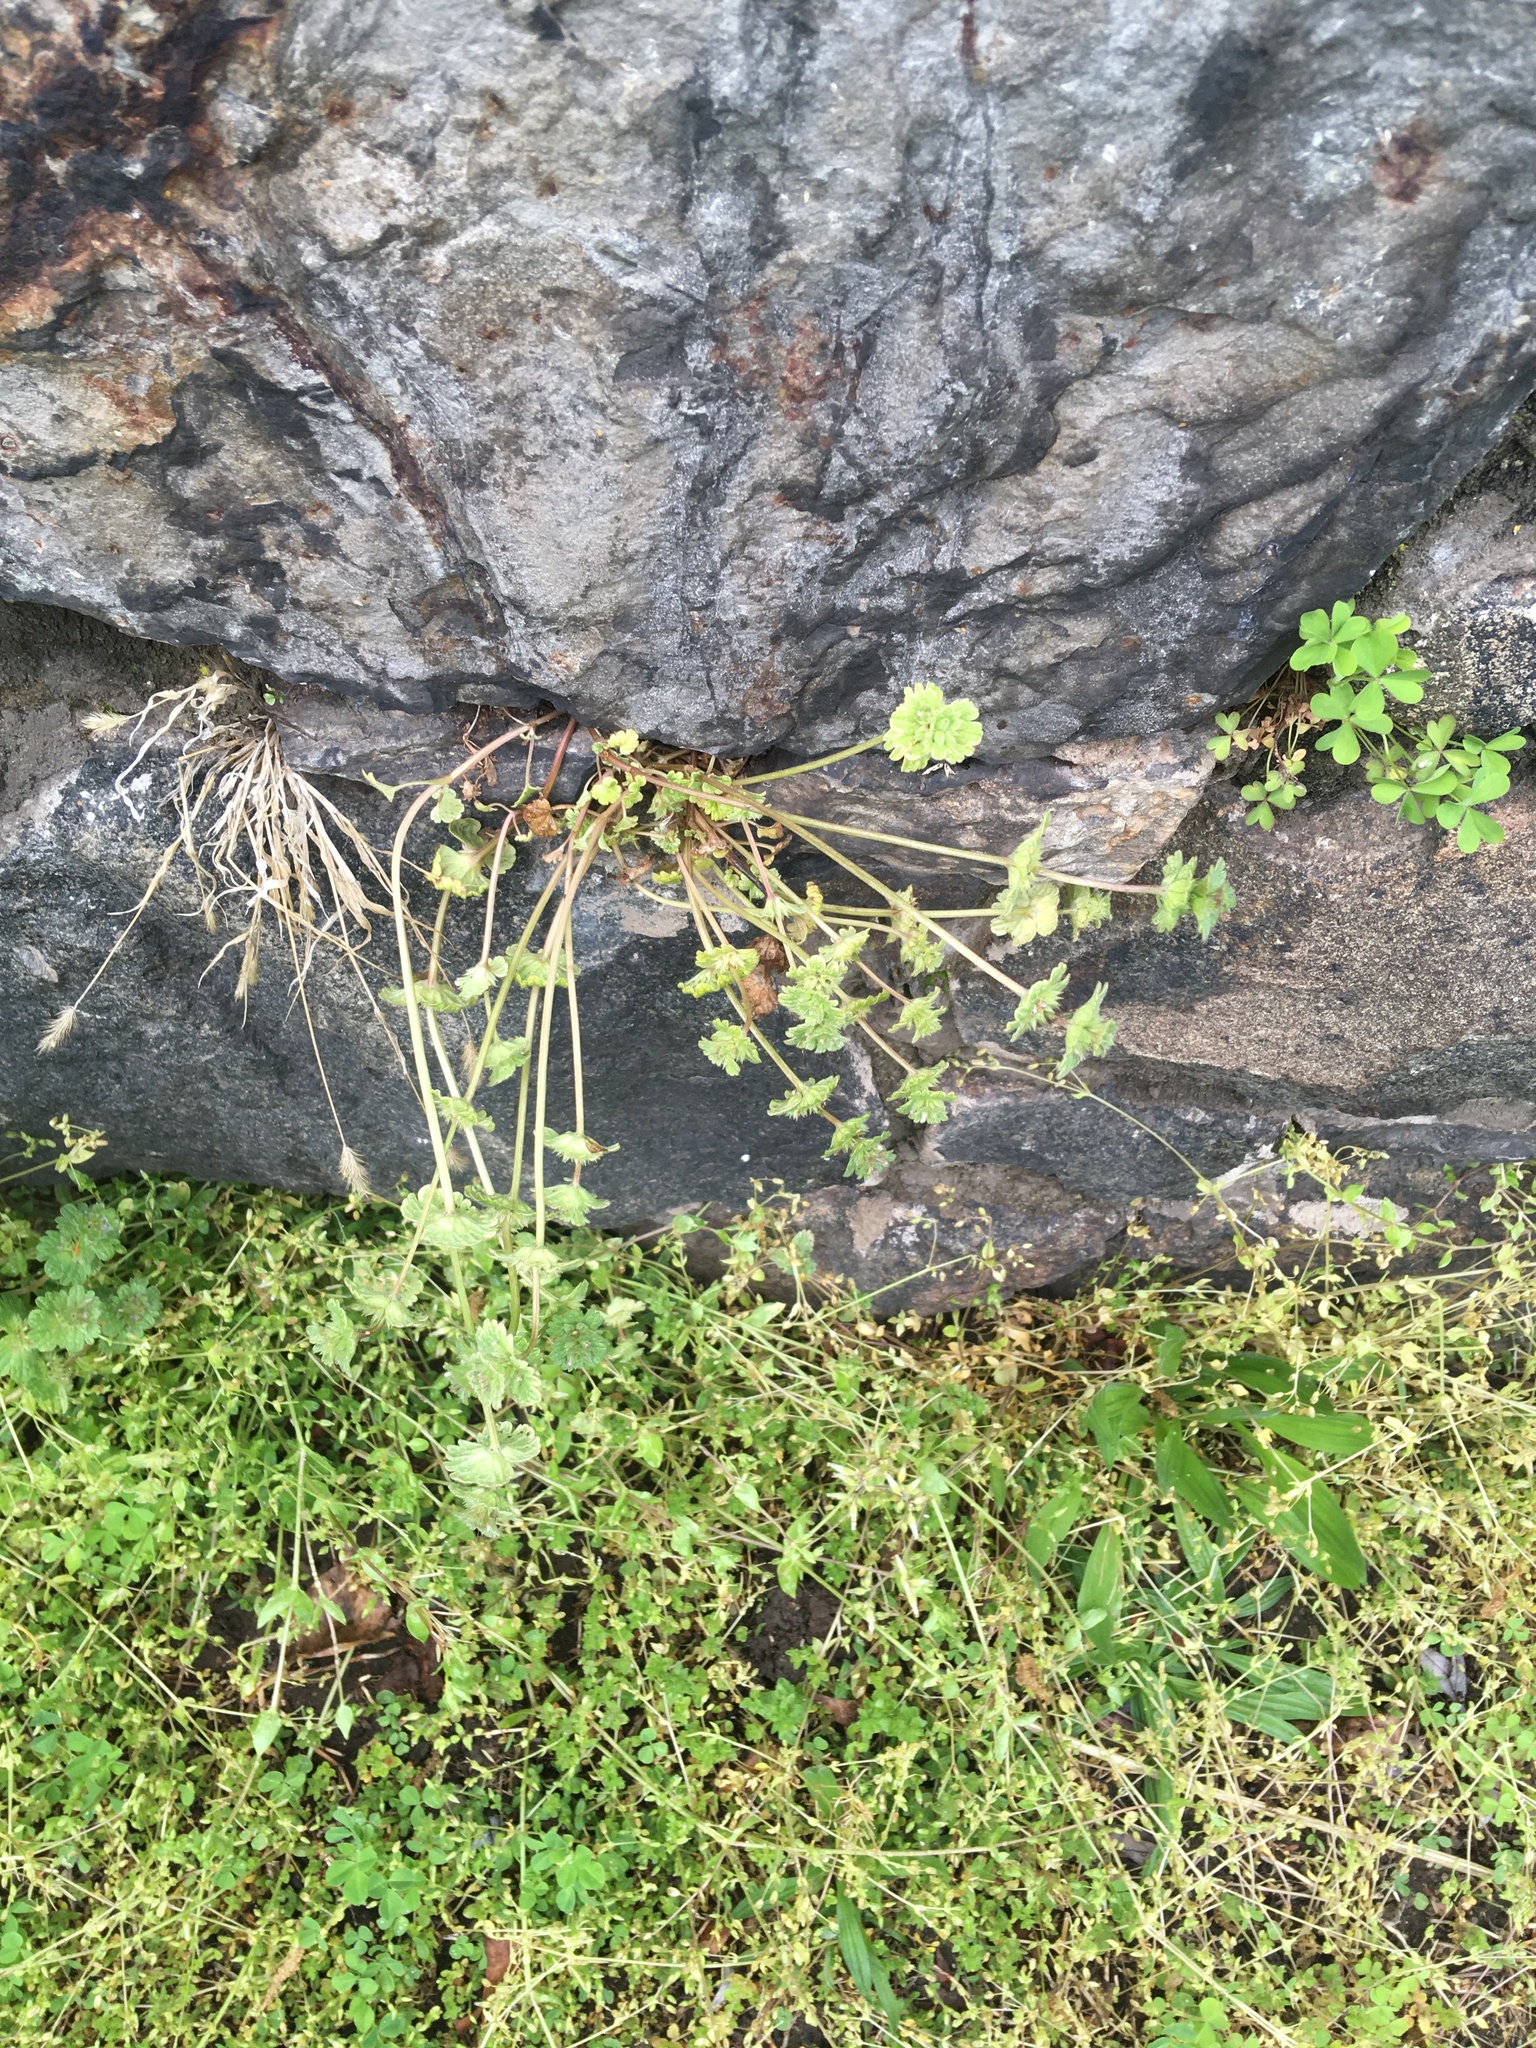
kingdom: Plantae
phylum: Tracheophyta
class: Magnoliopsida
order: Lamiales
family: Lamiaceae
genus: Lamium
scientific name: Lamium amplexicaule
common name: Henbit dead-nettle
